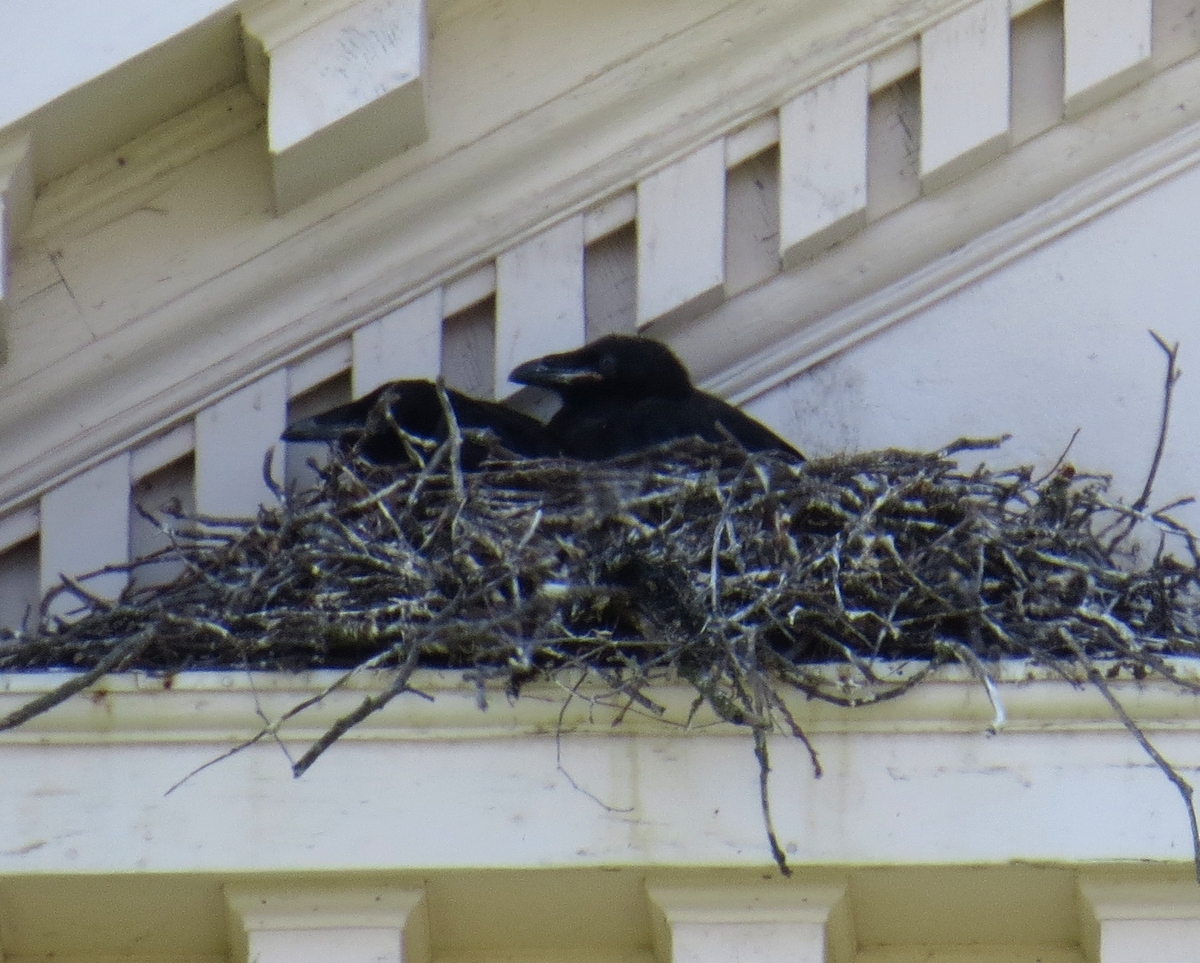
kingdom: Animalia
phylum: Chordata
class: Aves
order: Passeriformes
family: Corvidae
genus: Corvus
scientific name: Corvus corax
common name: Common raven
